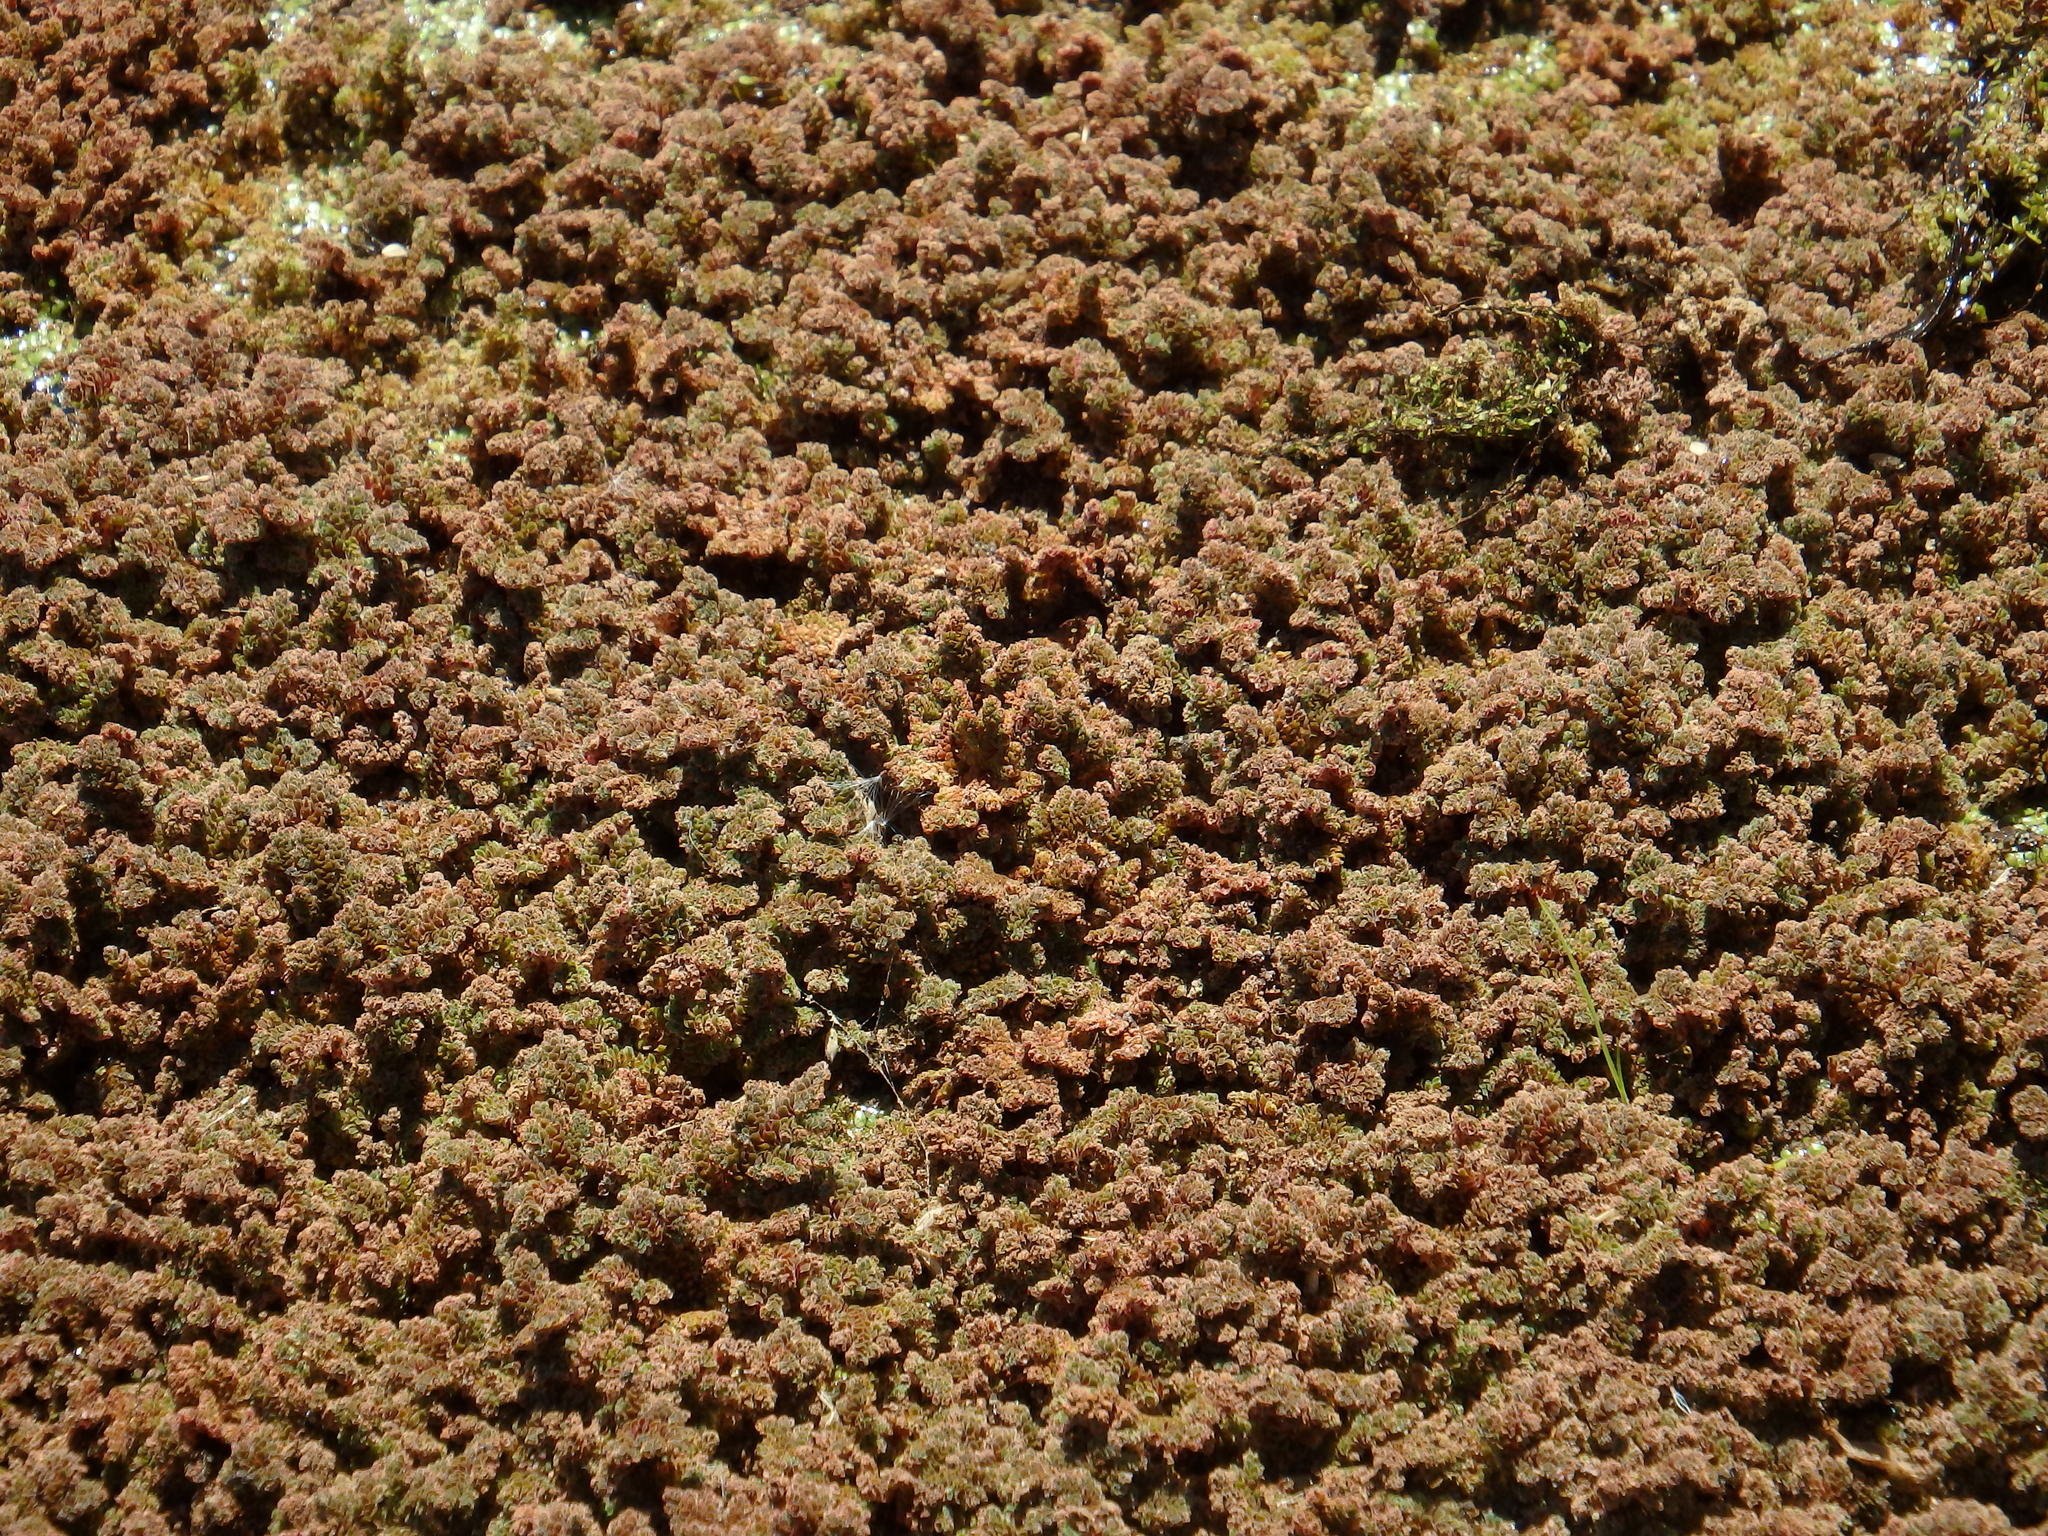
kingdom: Plantae
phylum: Tracheophyta
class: Polypodiopsida
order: Salviniales
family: Salviniaceae
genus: Azolla
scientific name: Azolla filiculoides
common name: Water fern
